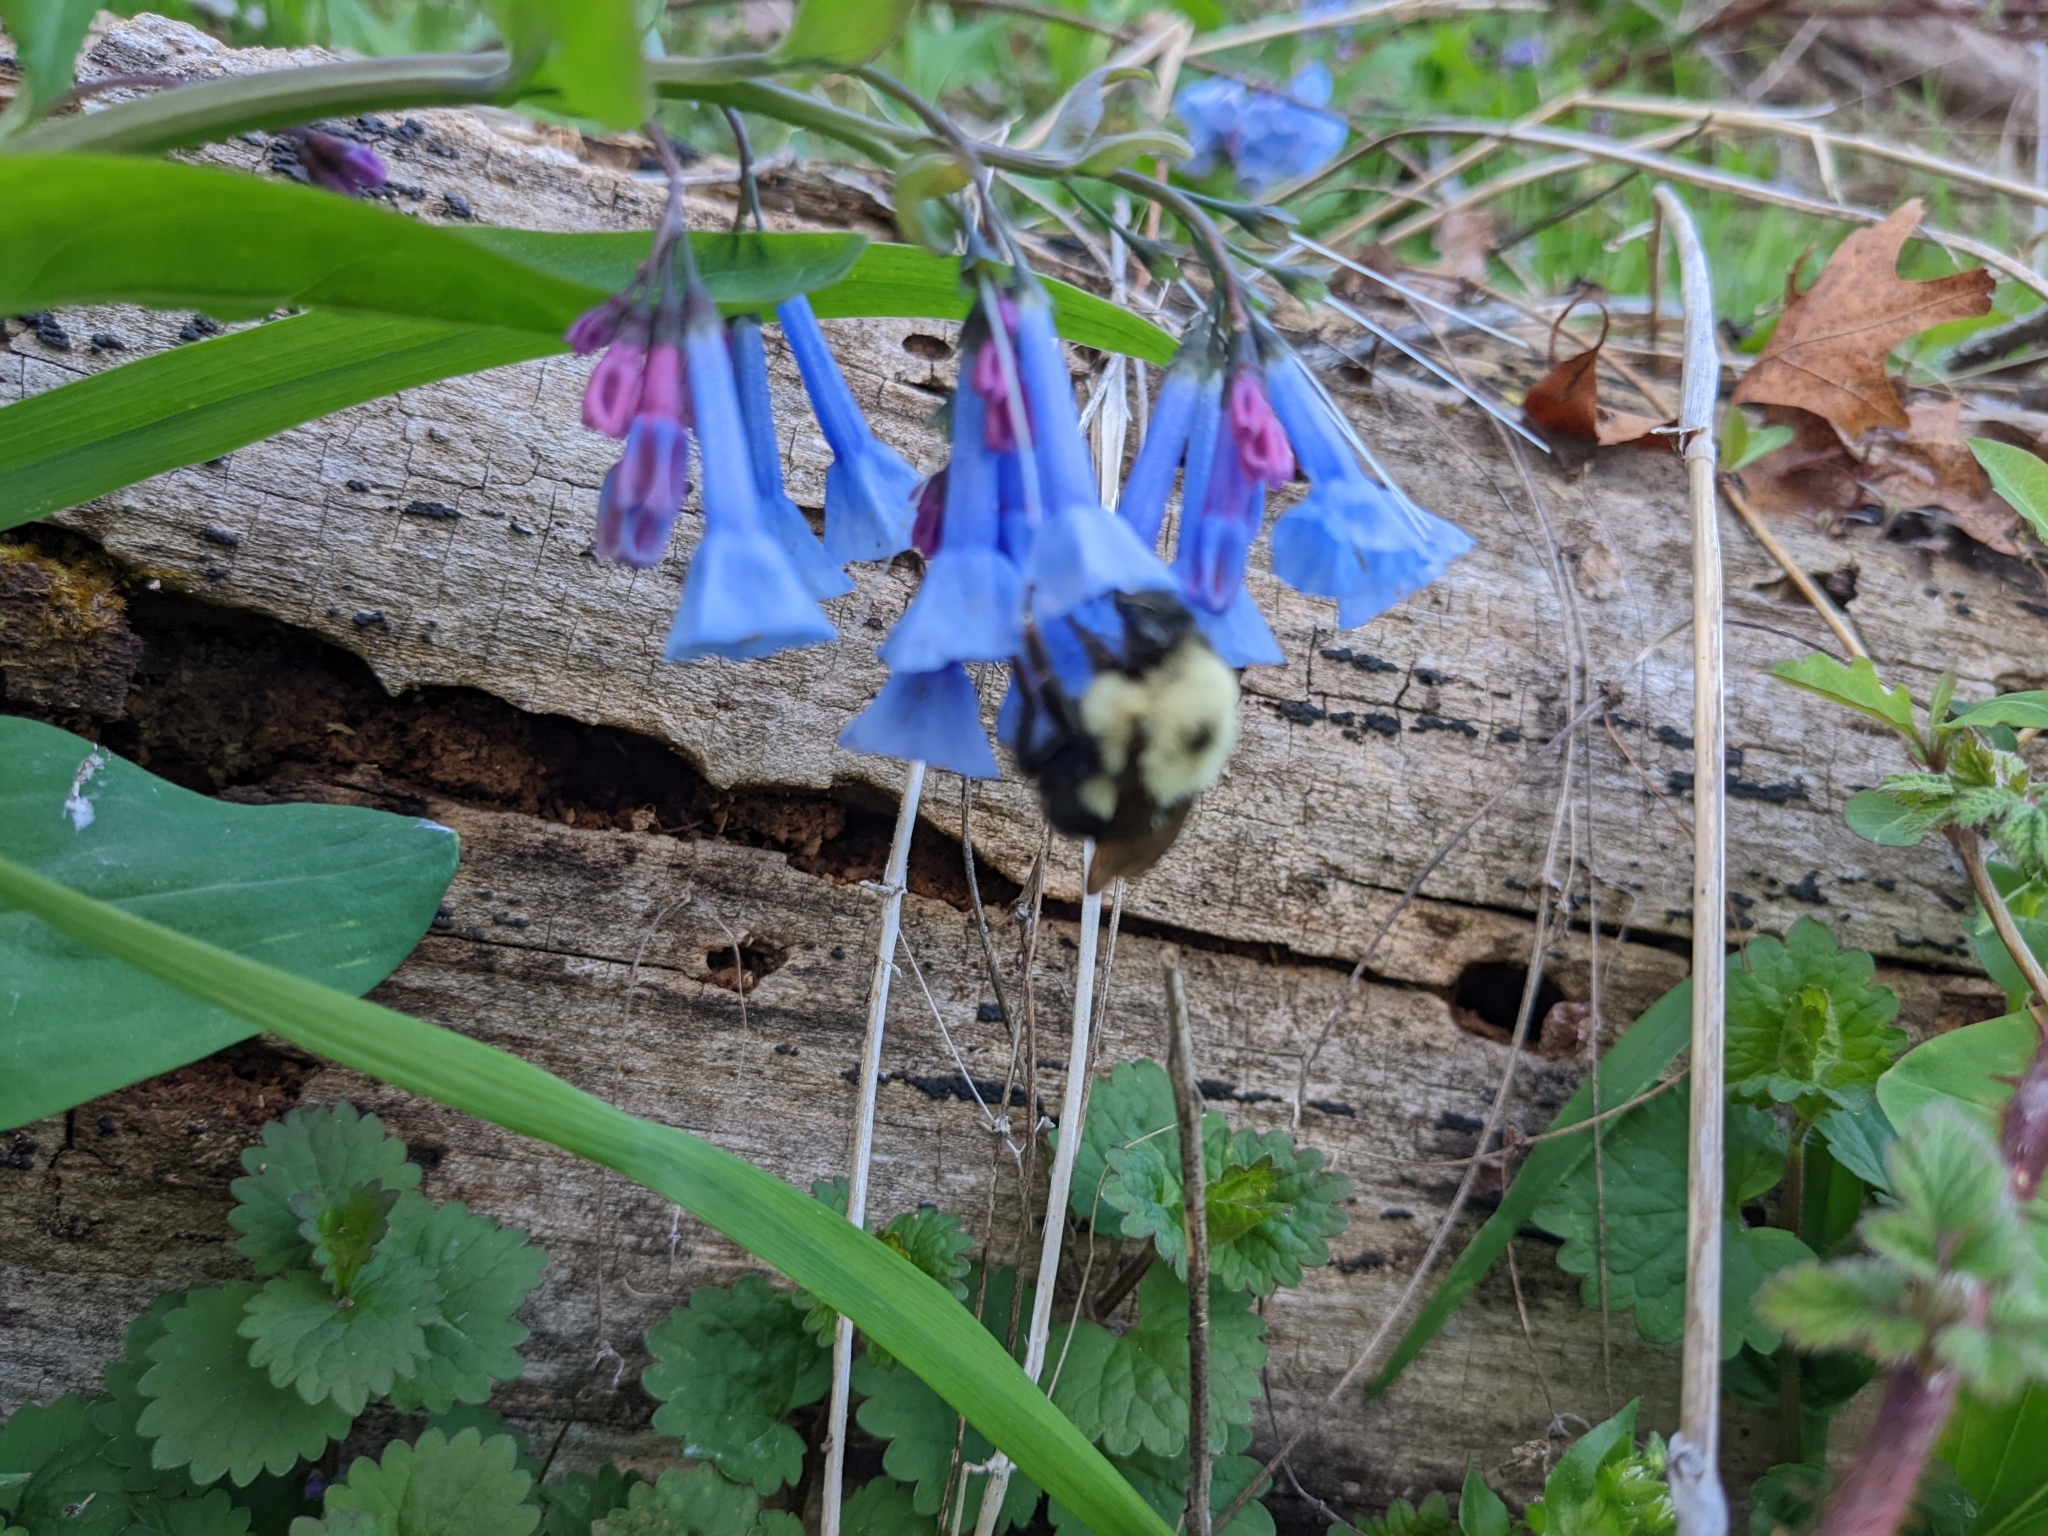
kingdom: Animalia
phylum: Arthropoda
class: Insecta
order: Hymenoptera
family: Apidae
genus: Bombus
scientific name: Bombus bimaculatus
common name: Two-spotted bumble bee
